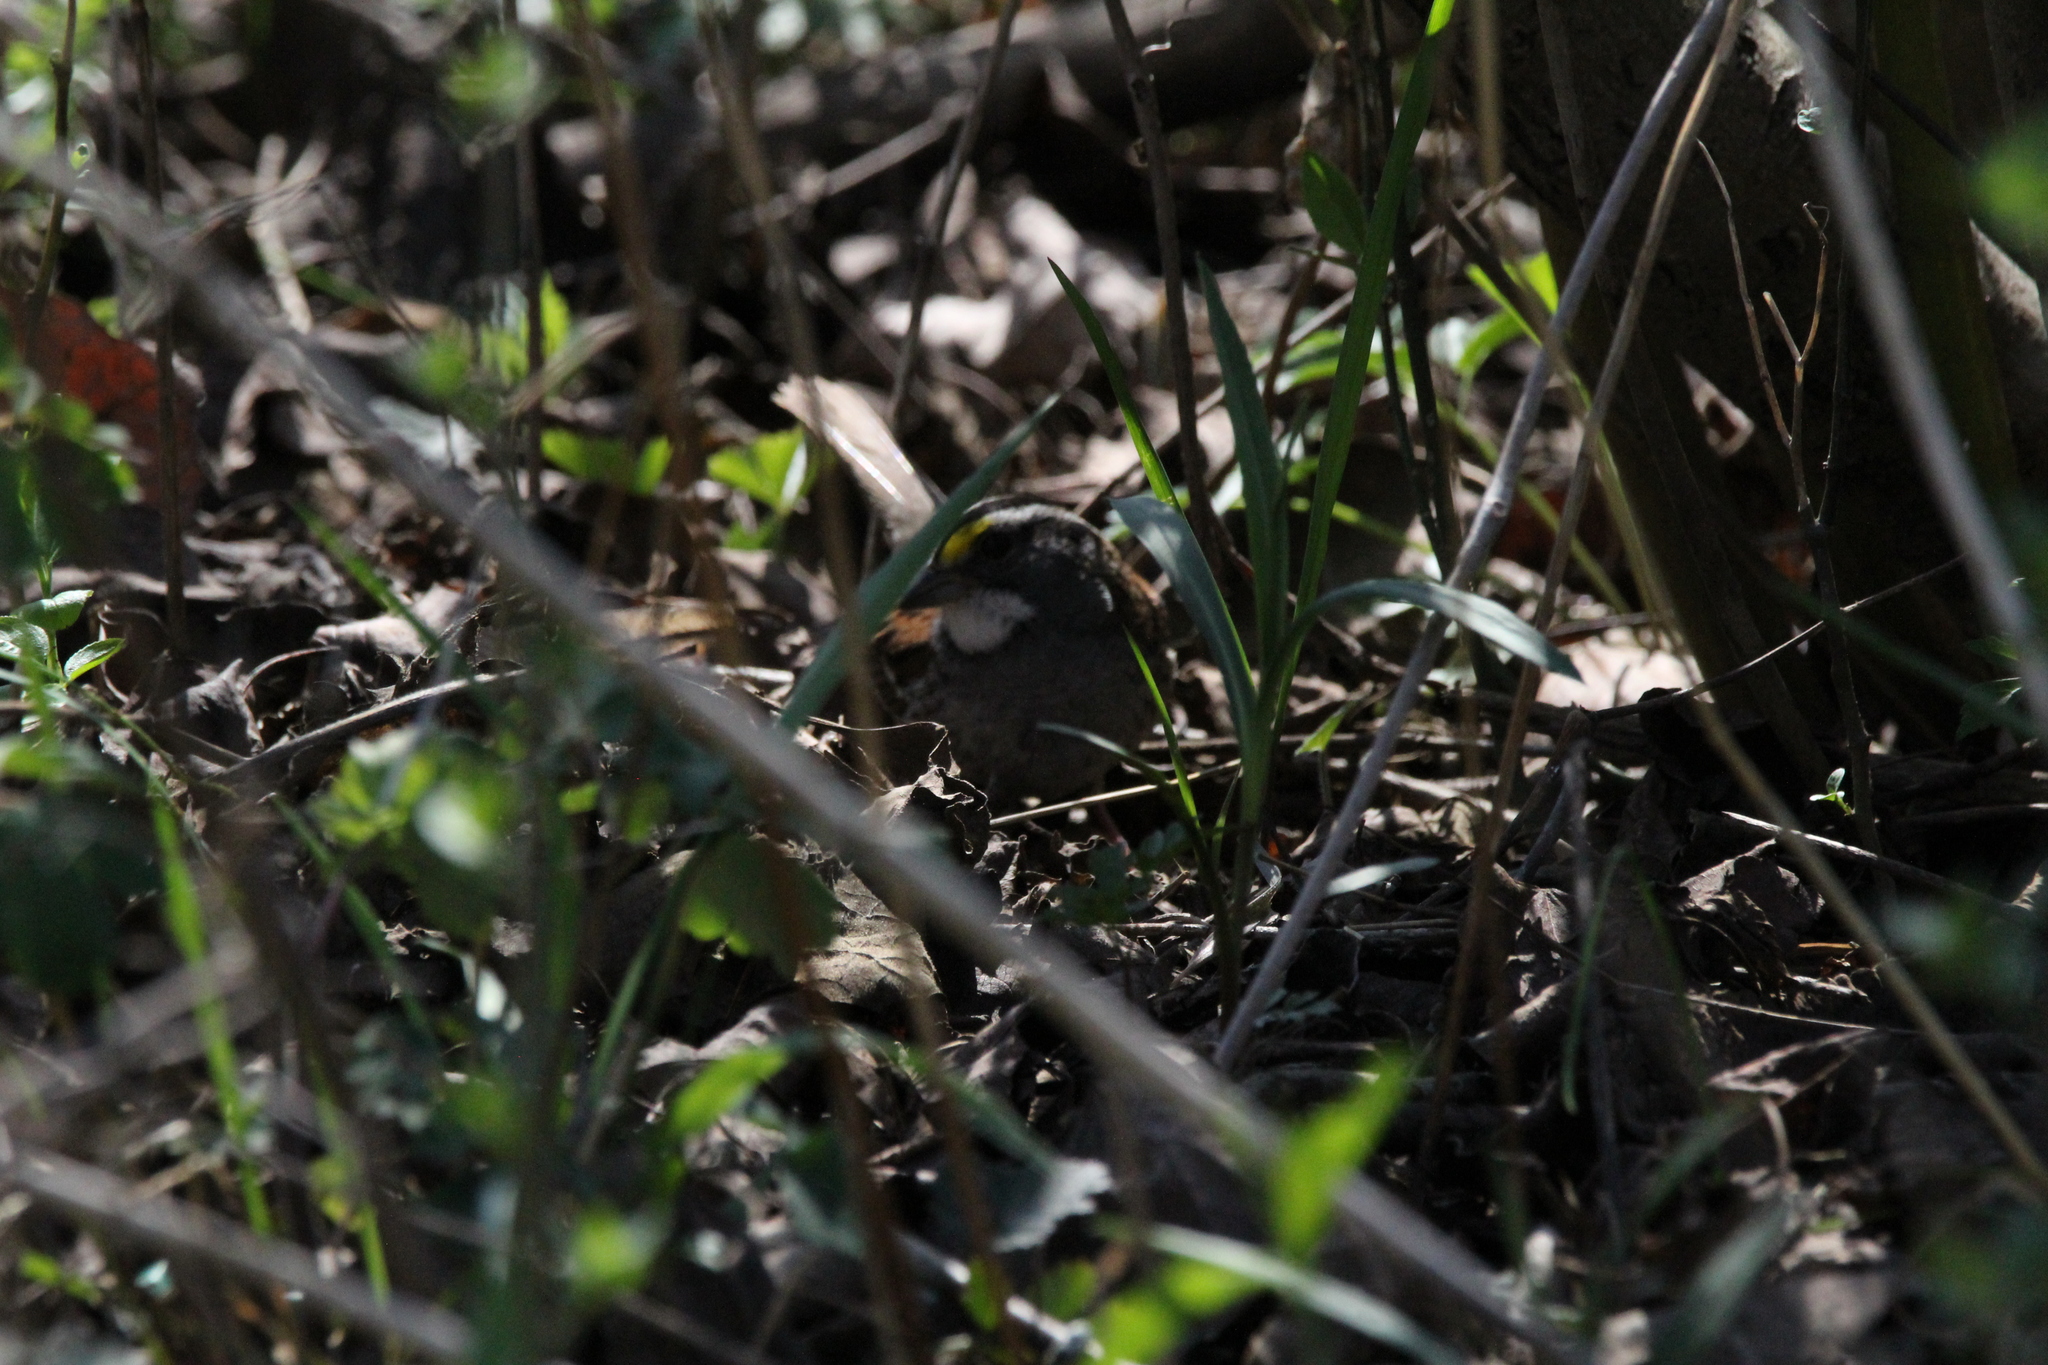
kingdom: Animalia
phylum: Chordata
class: Aves
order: Passeriformes
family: Passerellidae
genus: Zonotrichia
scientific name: Zonotrichia albicollis
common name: White-throated sparrow
